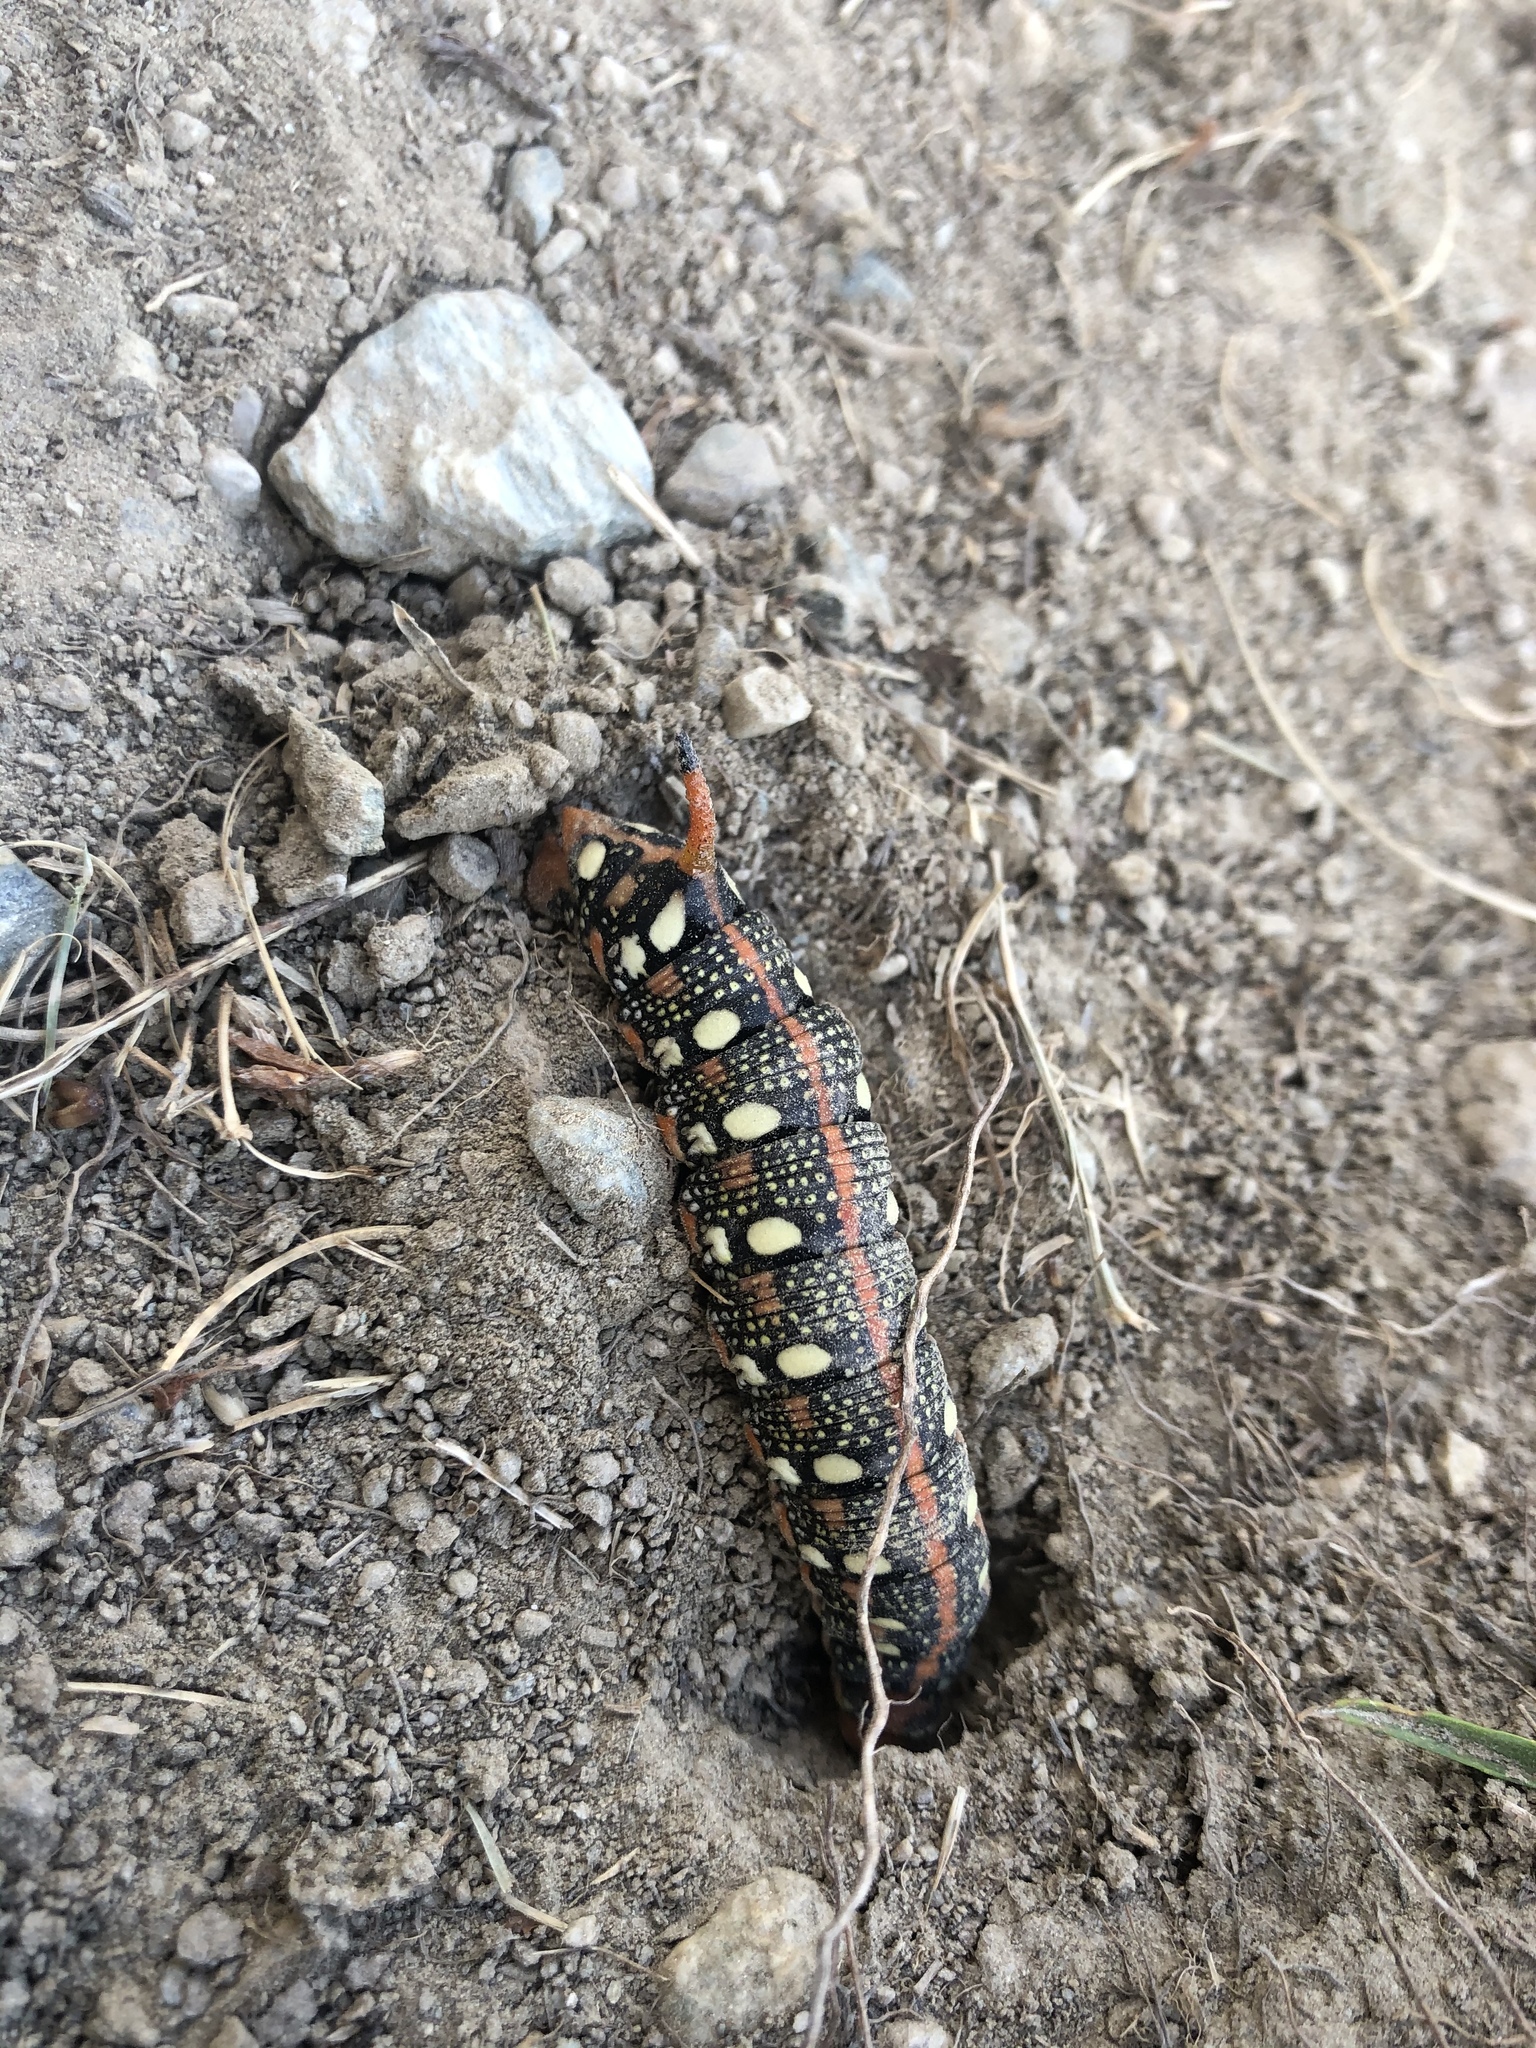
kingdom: Animalia
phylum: Arthropoda
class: Insecta
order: Lepidoptera
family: Sphingidae
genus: Hyles
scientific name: Hyles euphorbiae
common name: Spurge hawk-moth
